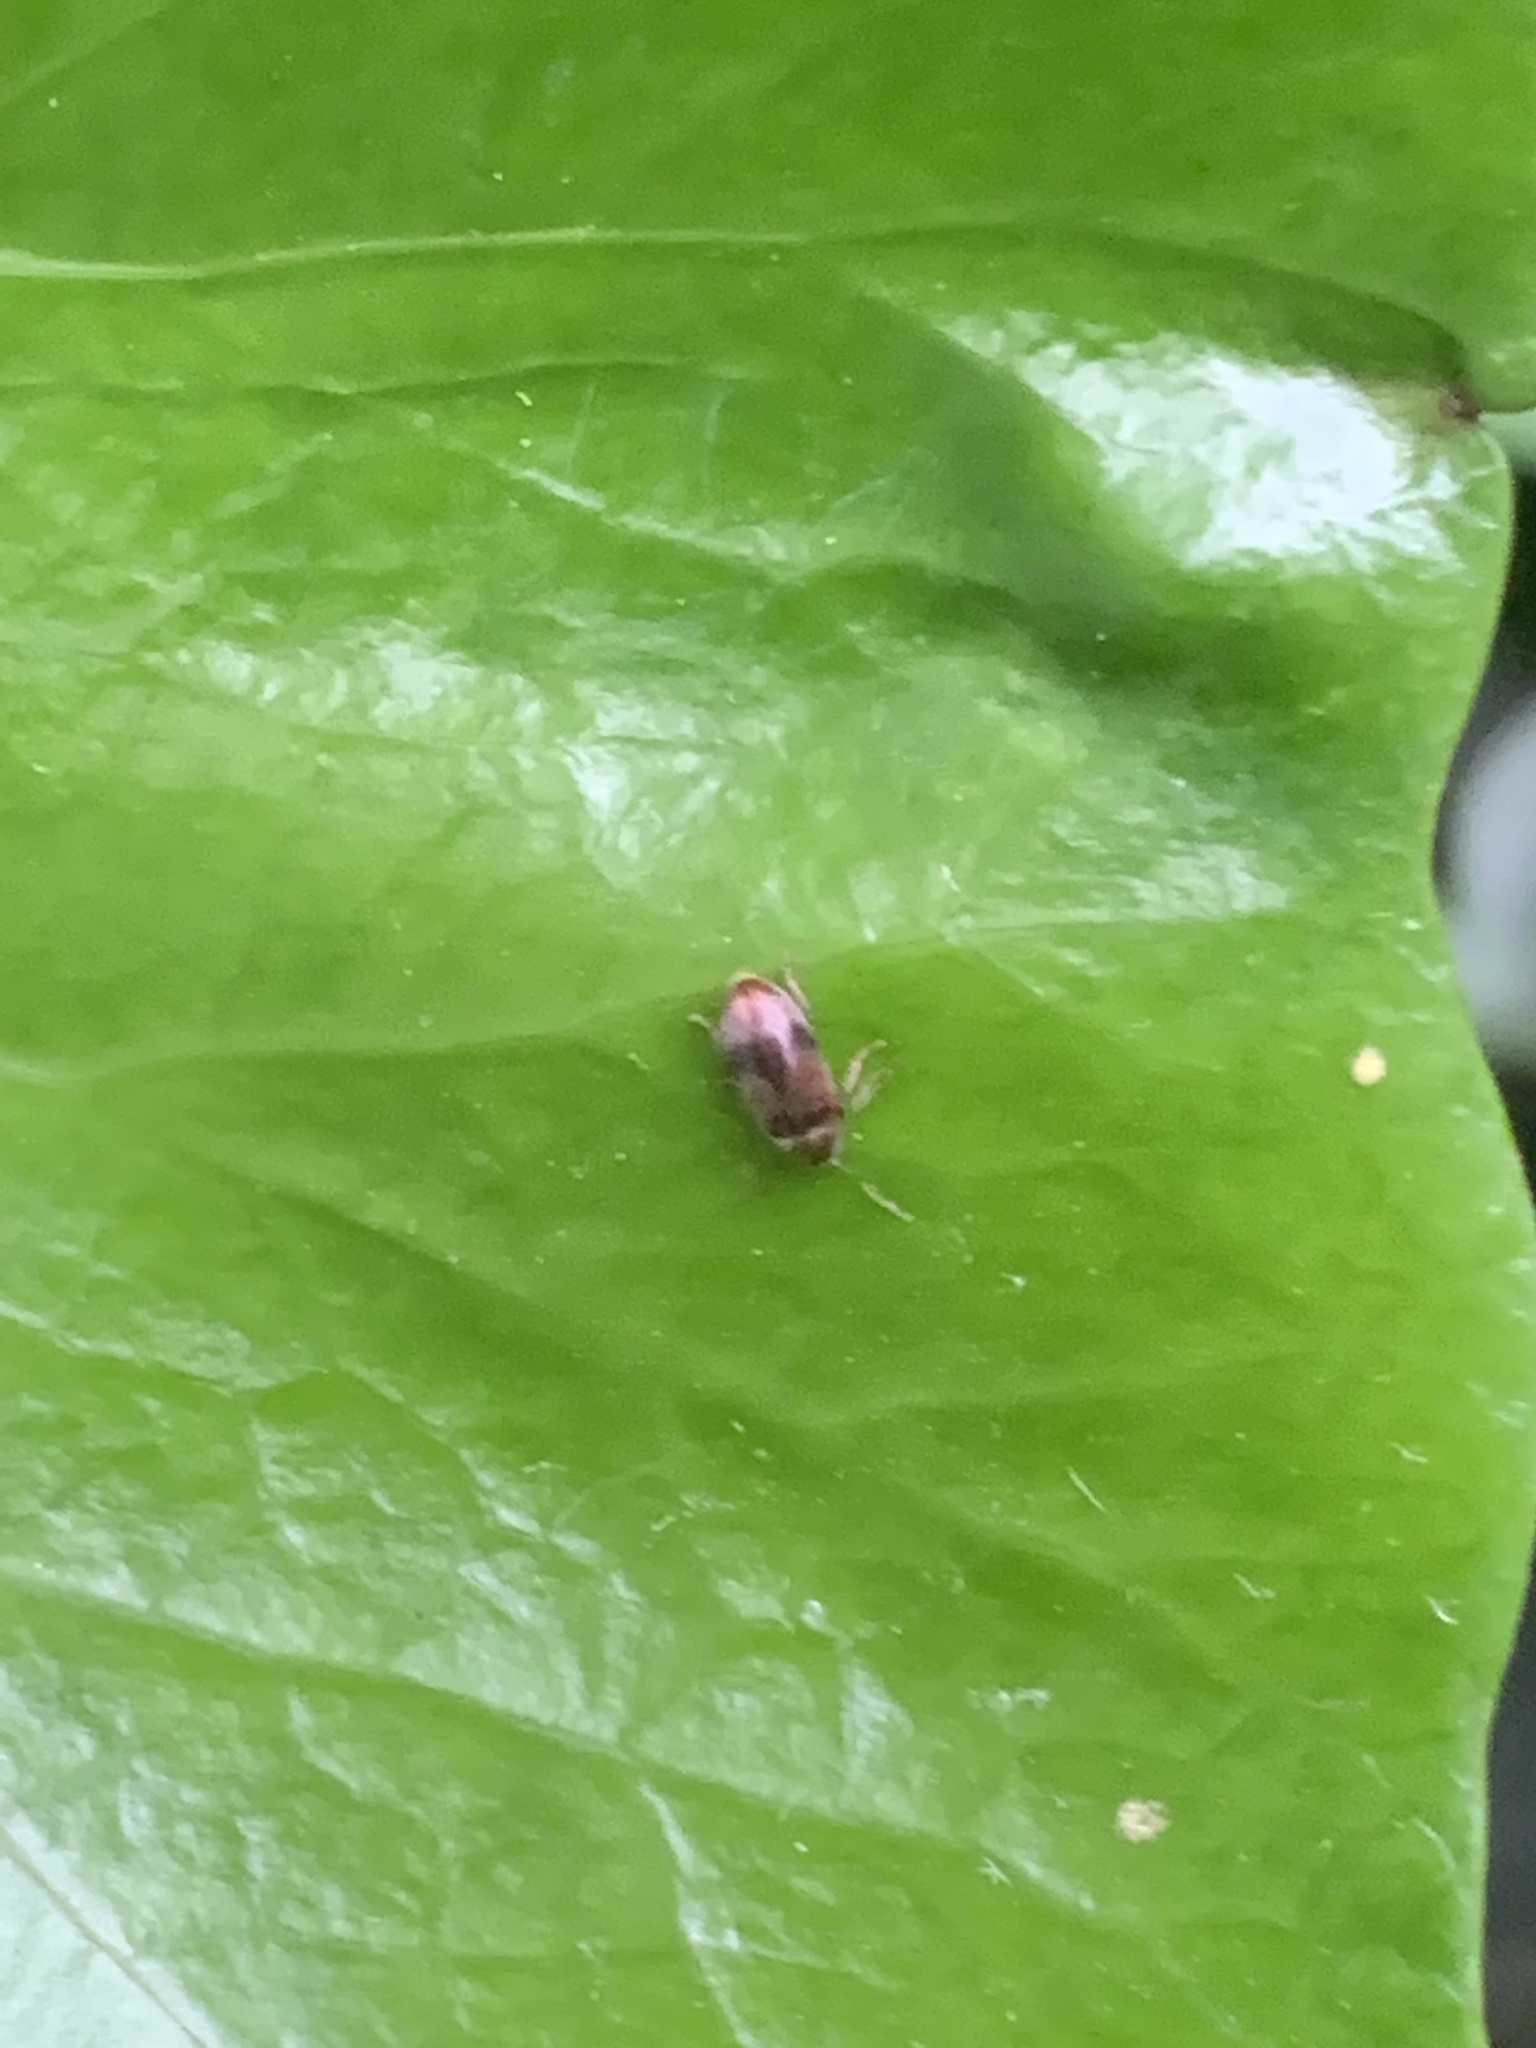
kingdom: Animalia
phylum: Arthropoda
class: Insecta
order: Coleoptera
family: Ptinidae
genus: Ochina
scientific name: Ochina ptinoides
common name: Ivy boring beetle
